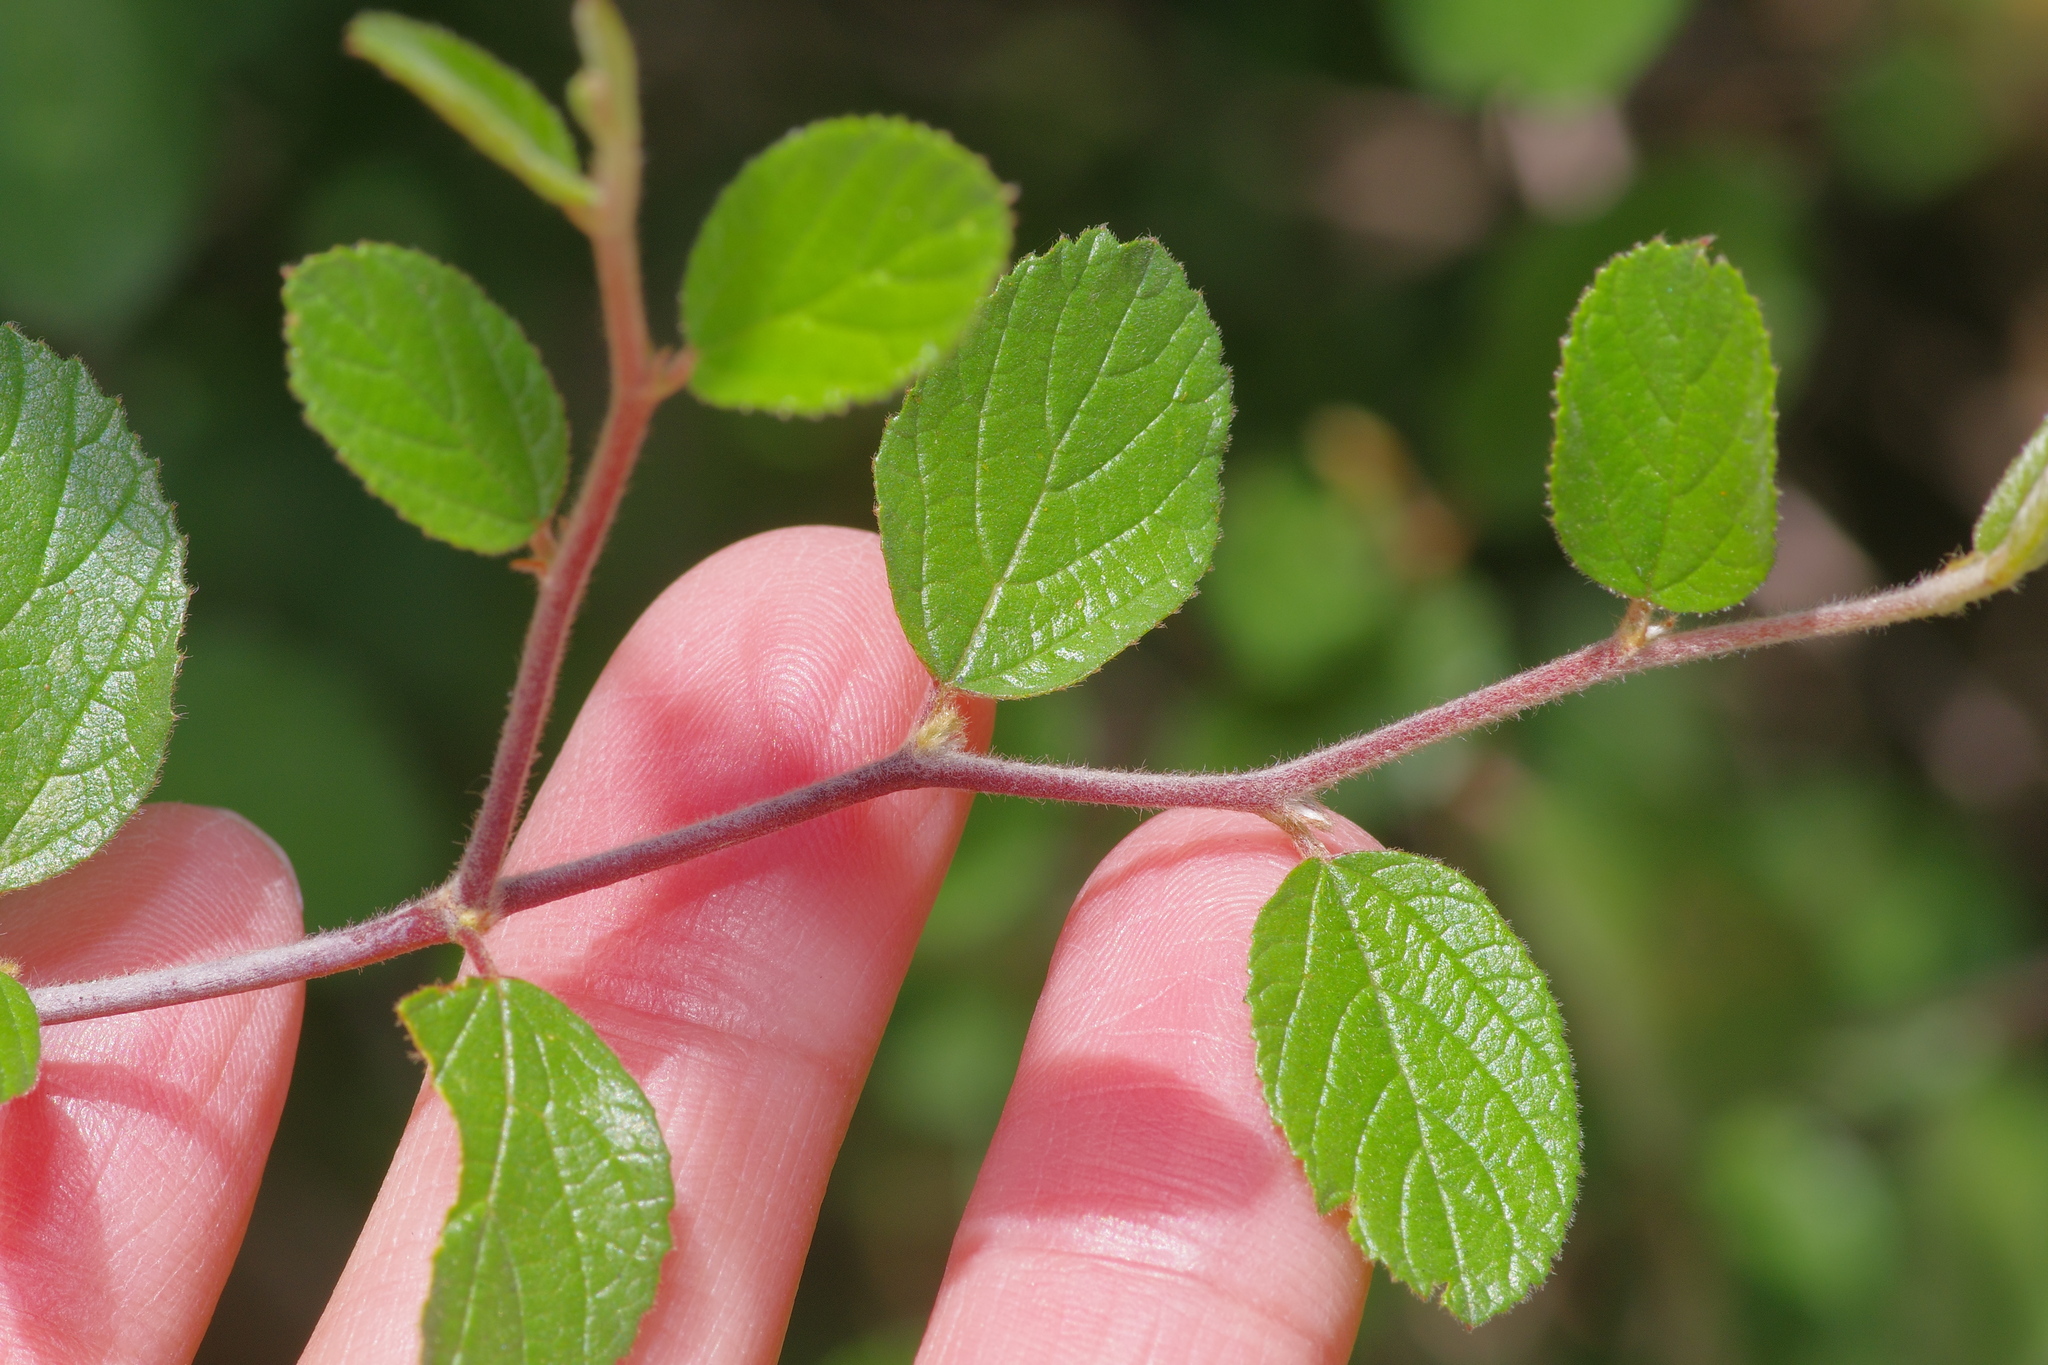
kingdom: Plantae
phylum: Tracheophyta
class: Magnoliopsida
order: Rosales
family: Rhamnaceae
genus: Colubrina
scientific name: Colubrina texensis
